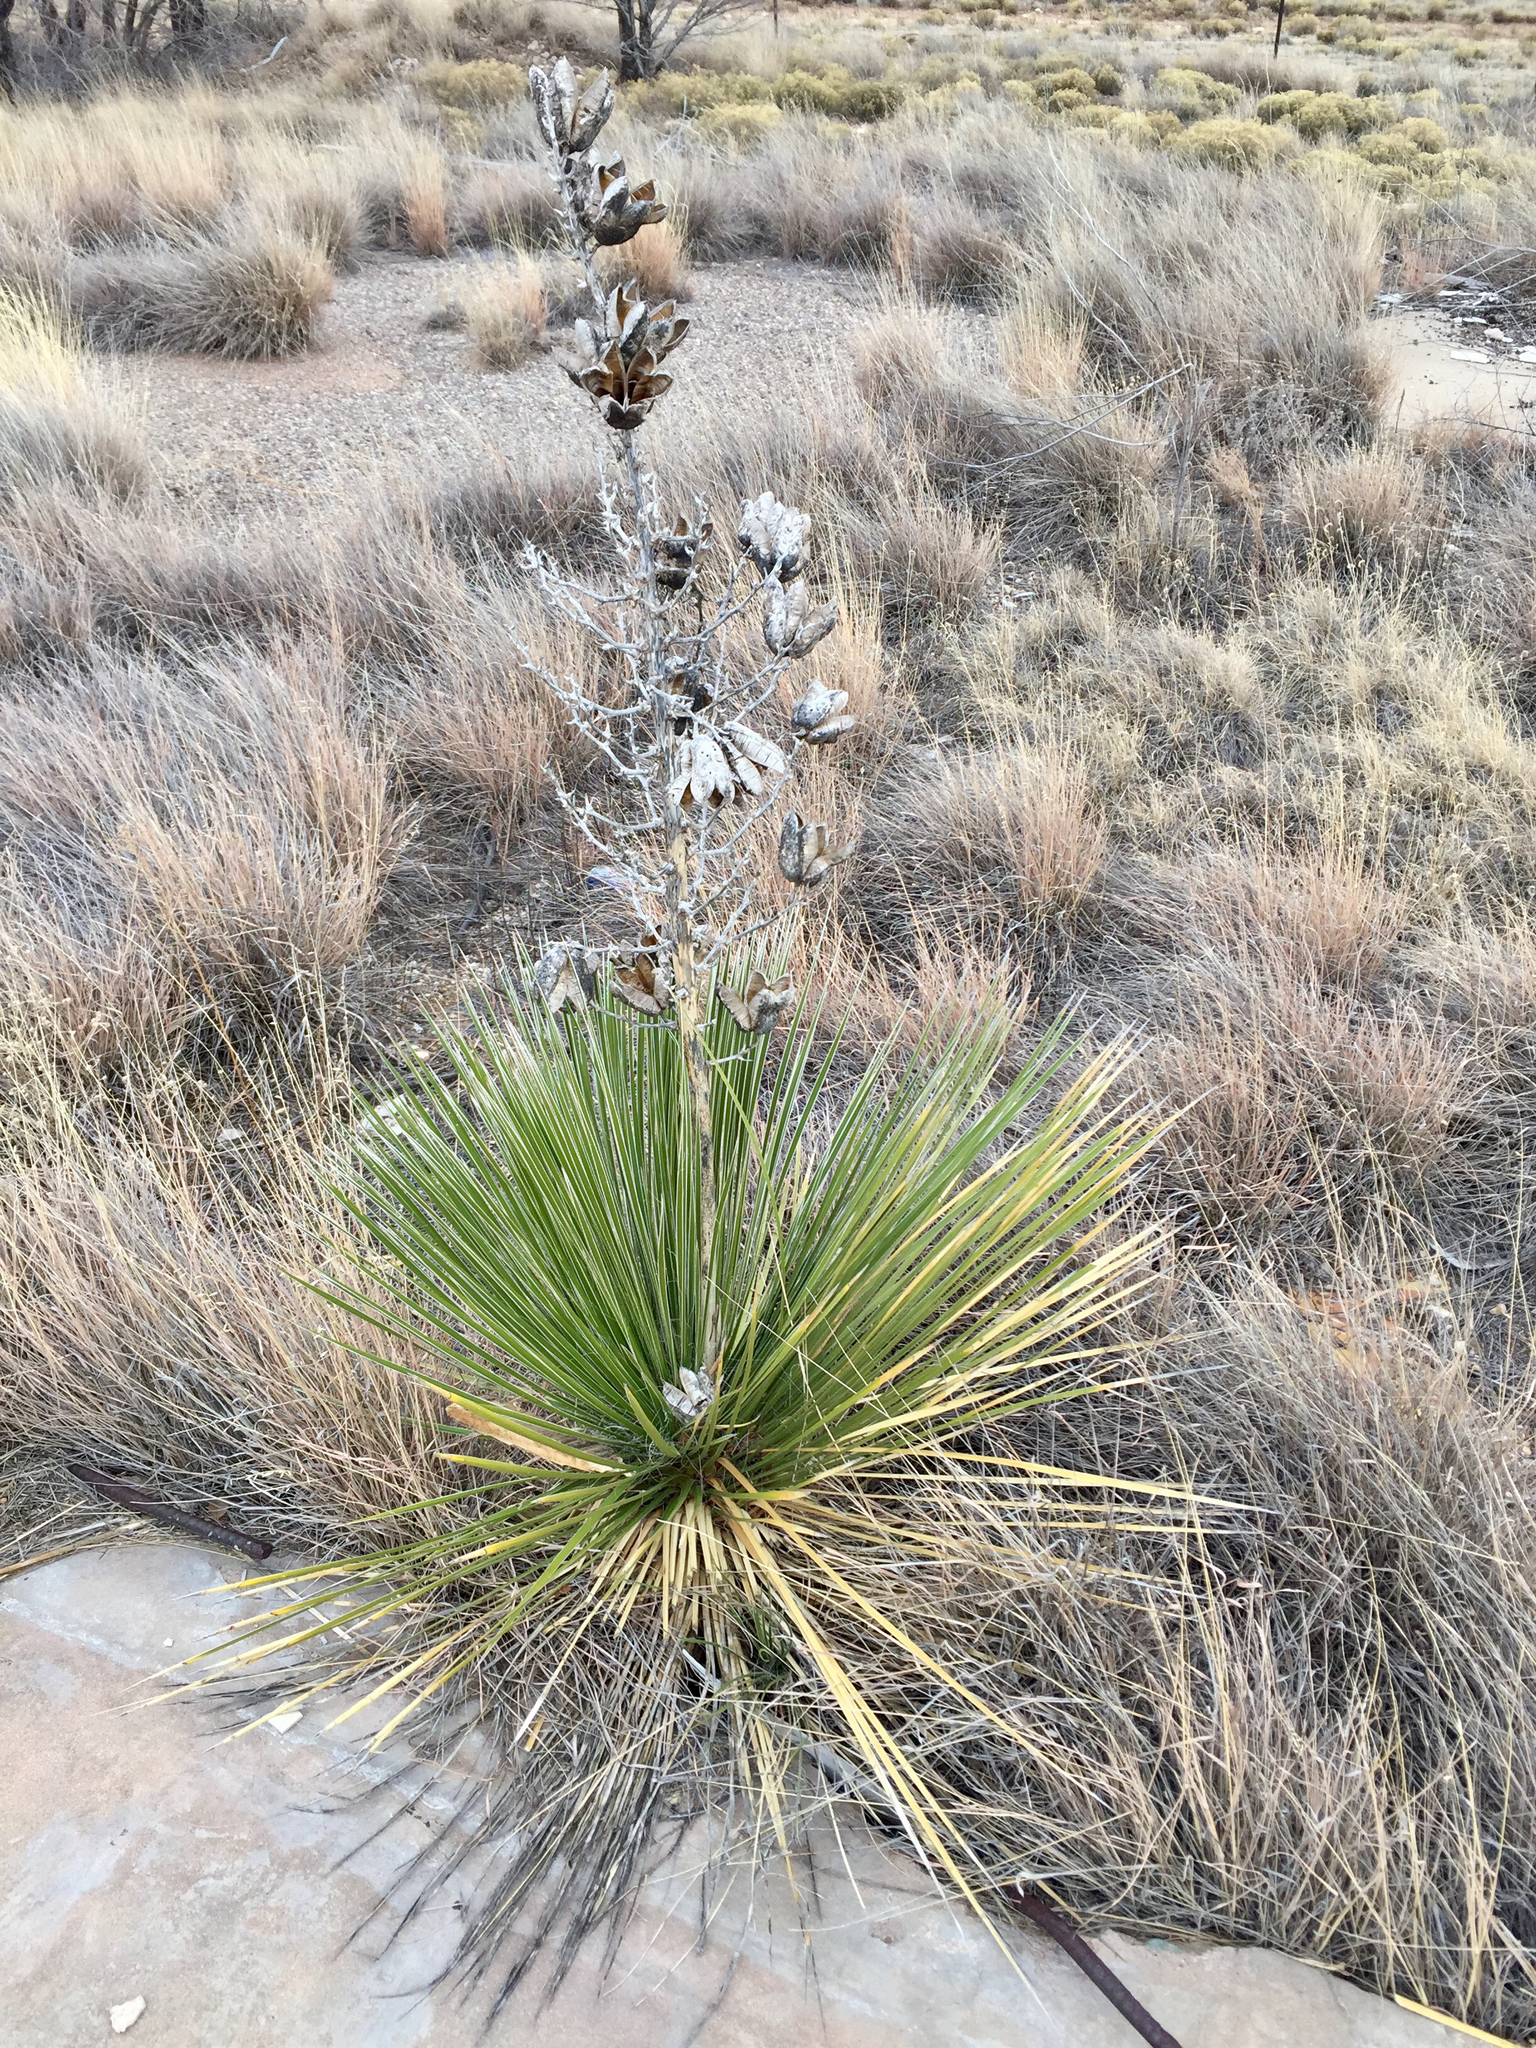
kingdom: Plantae
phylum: Tracheophyta
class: Liliopsida
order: Asparagales
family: Asparagaceae
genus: Yucca
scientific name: Yucca campestris
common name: Plains yucca
